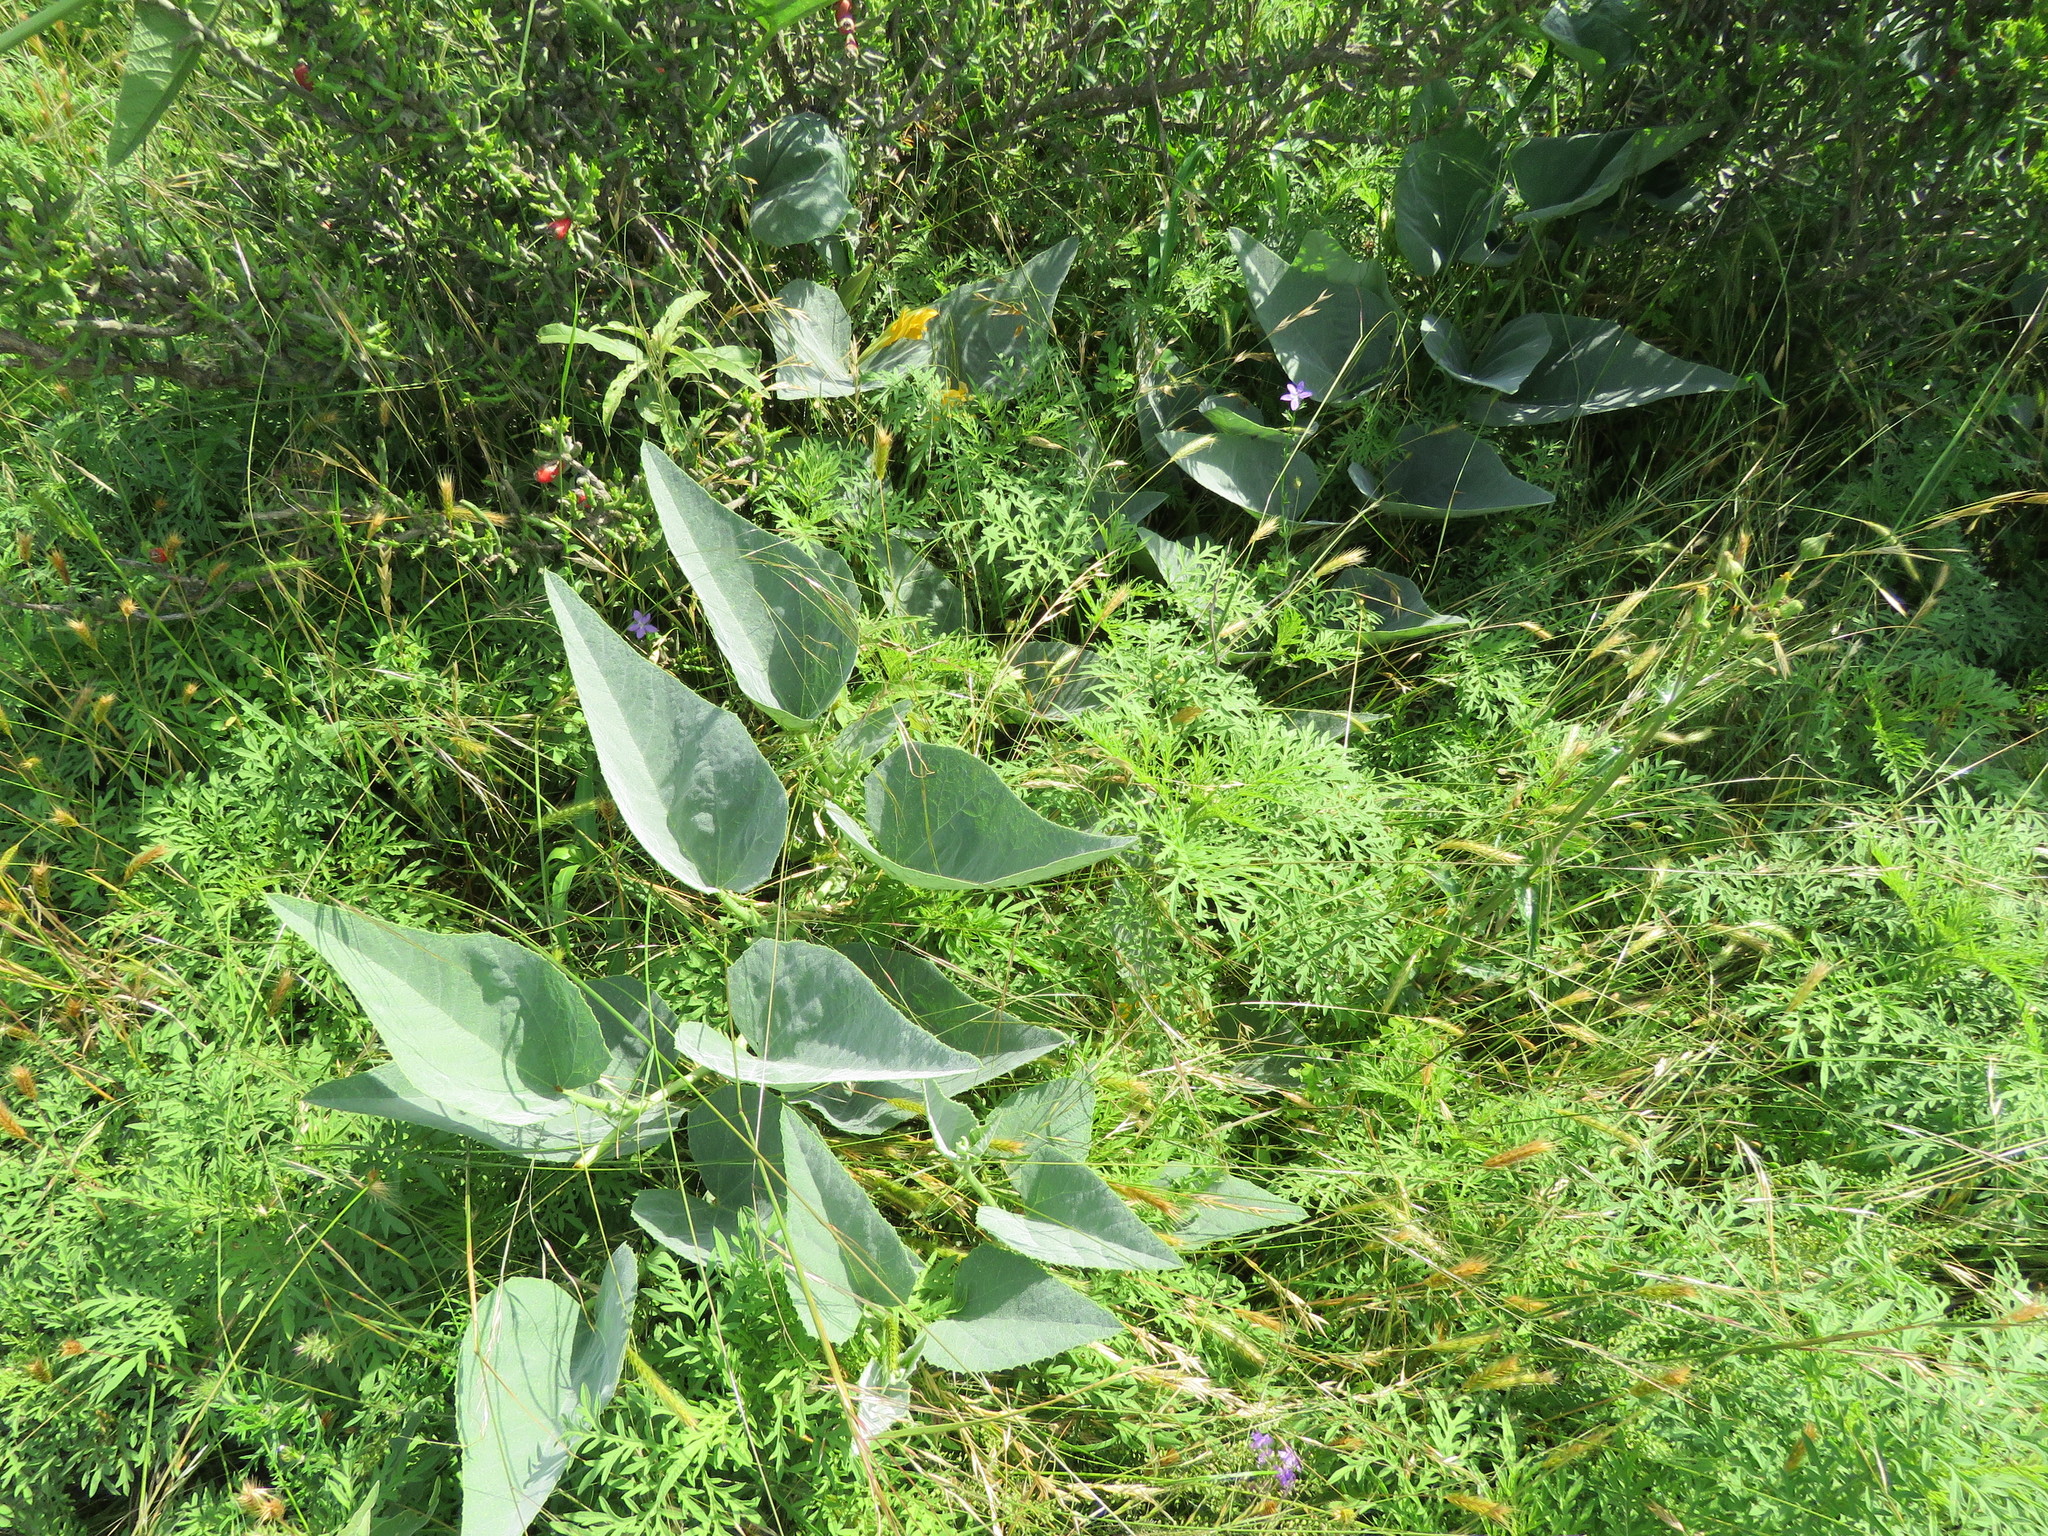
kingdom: Plantae
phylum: Tracheophyta
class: Magnoliopsida
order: Cucurbitales
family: Cucurbitaceae
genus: Cucurbita
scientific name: Cucurbita foetidissima
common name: Buffalo gourd
